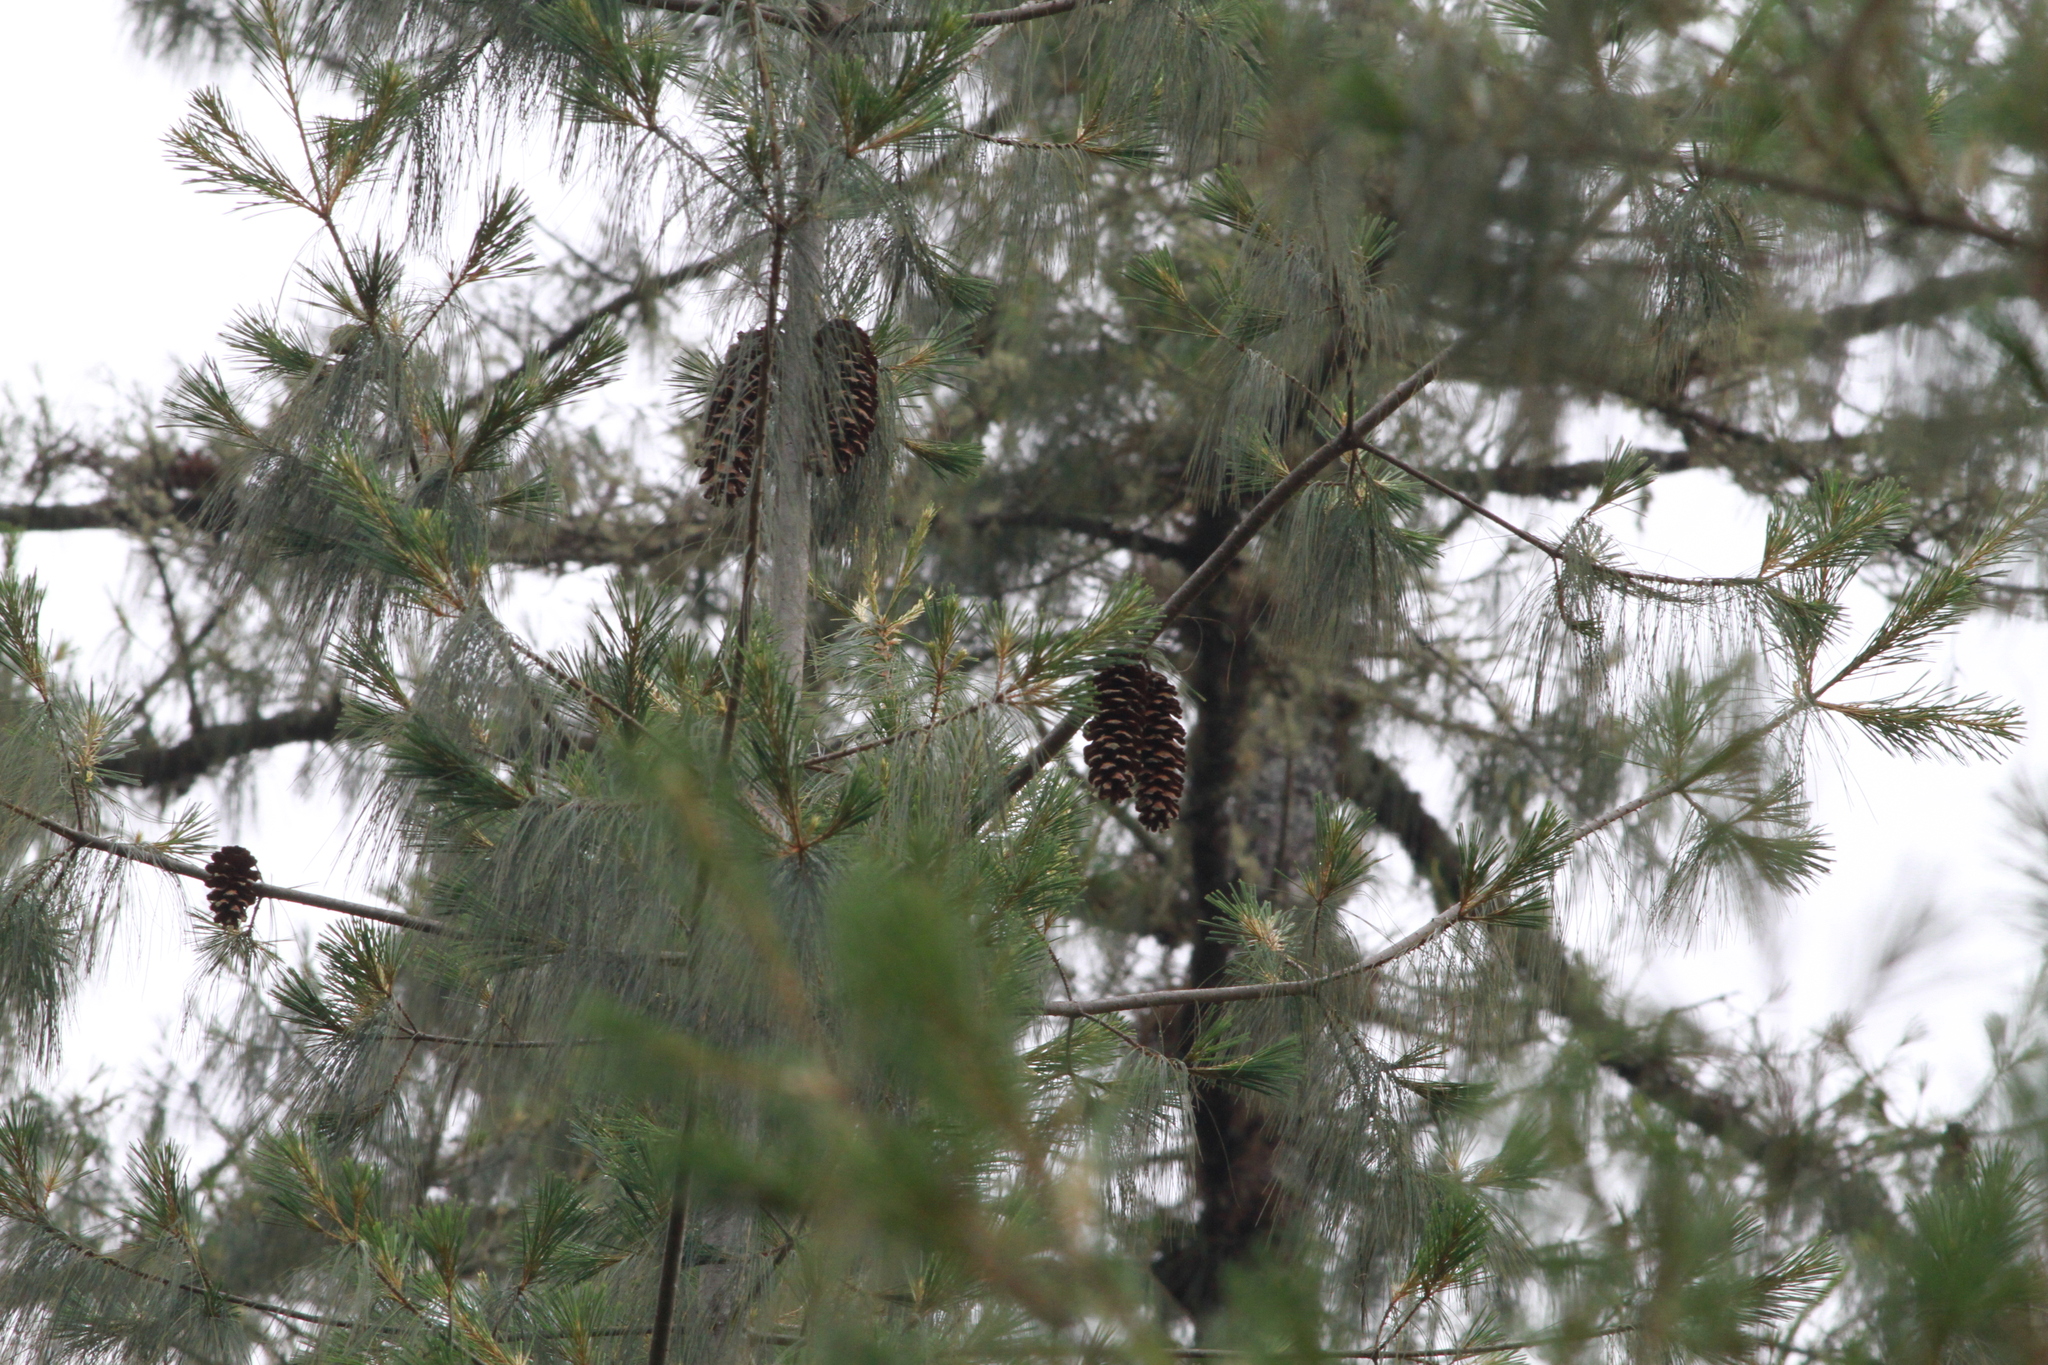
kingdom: Plantae
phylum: Tracheophyta
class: Pinopsida
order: Pinales
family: Pinaceae
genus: Pinus
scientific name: Pinus ayacahuite
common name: Mexican white pine
